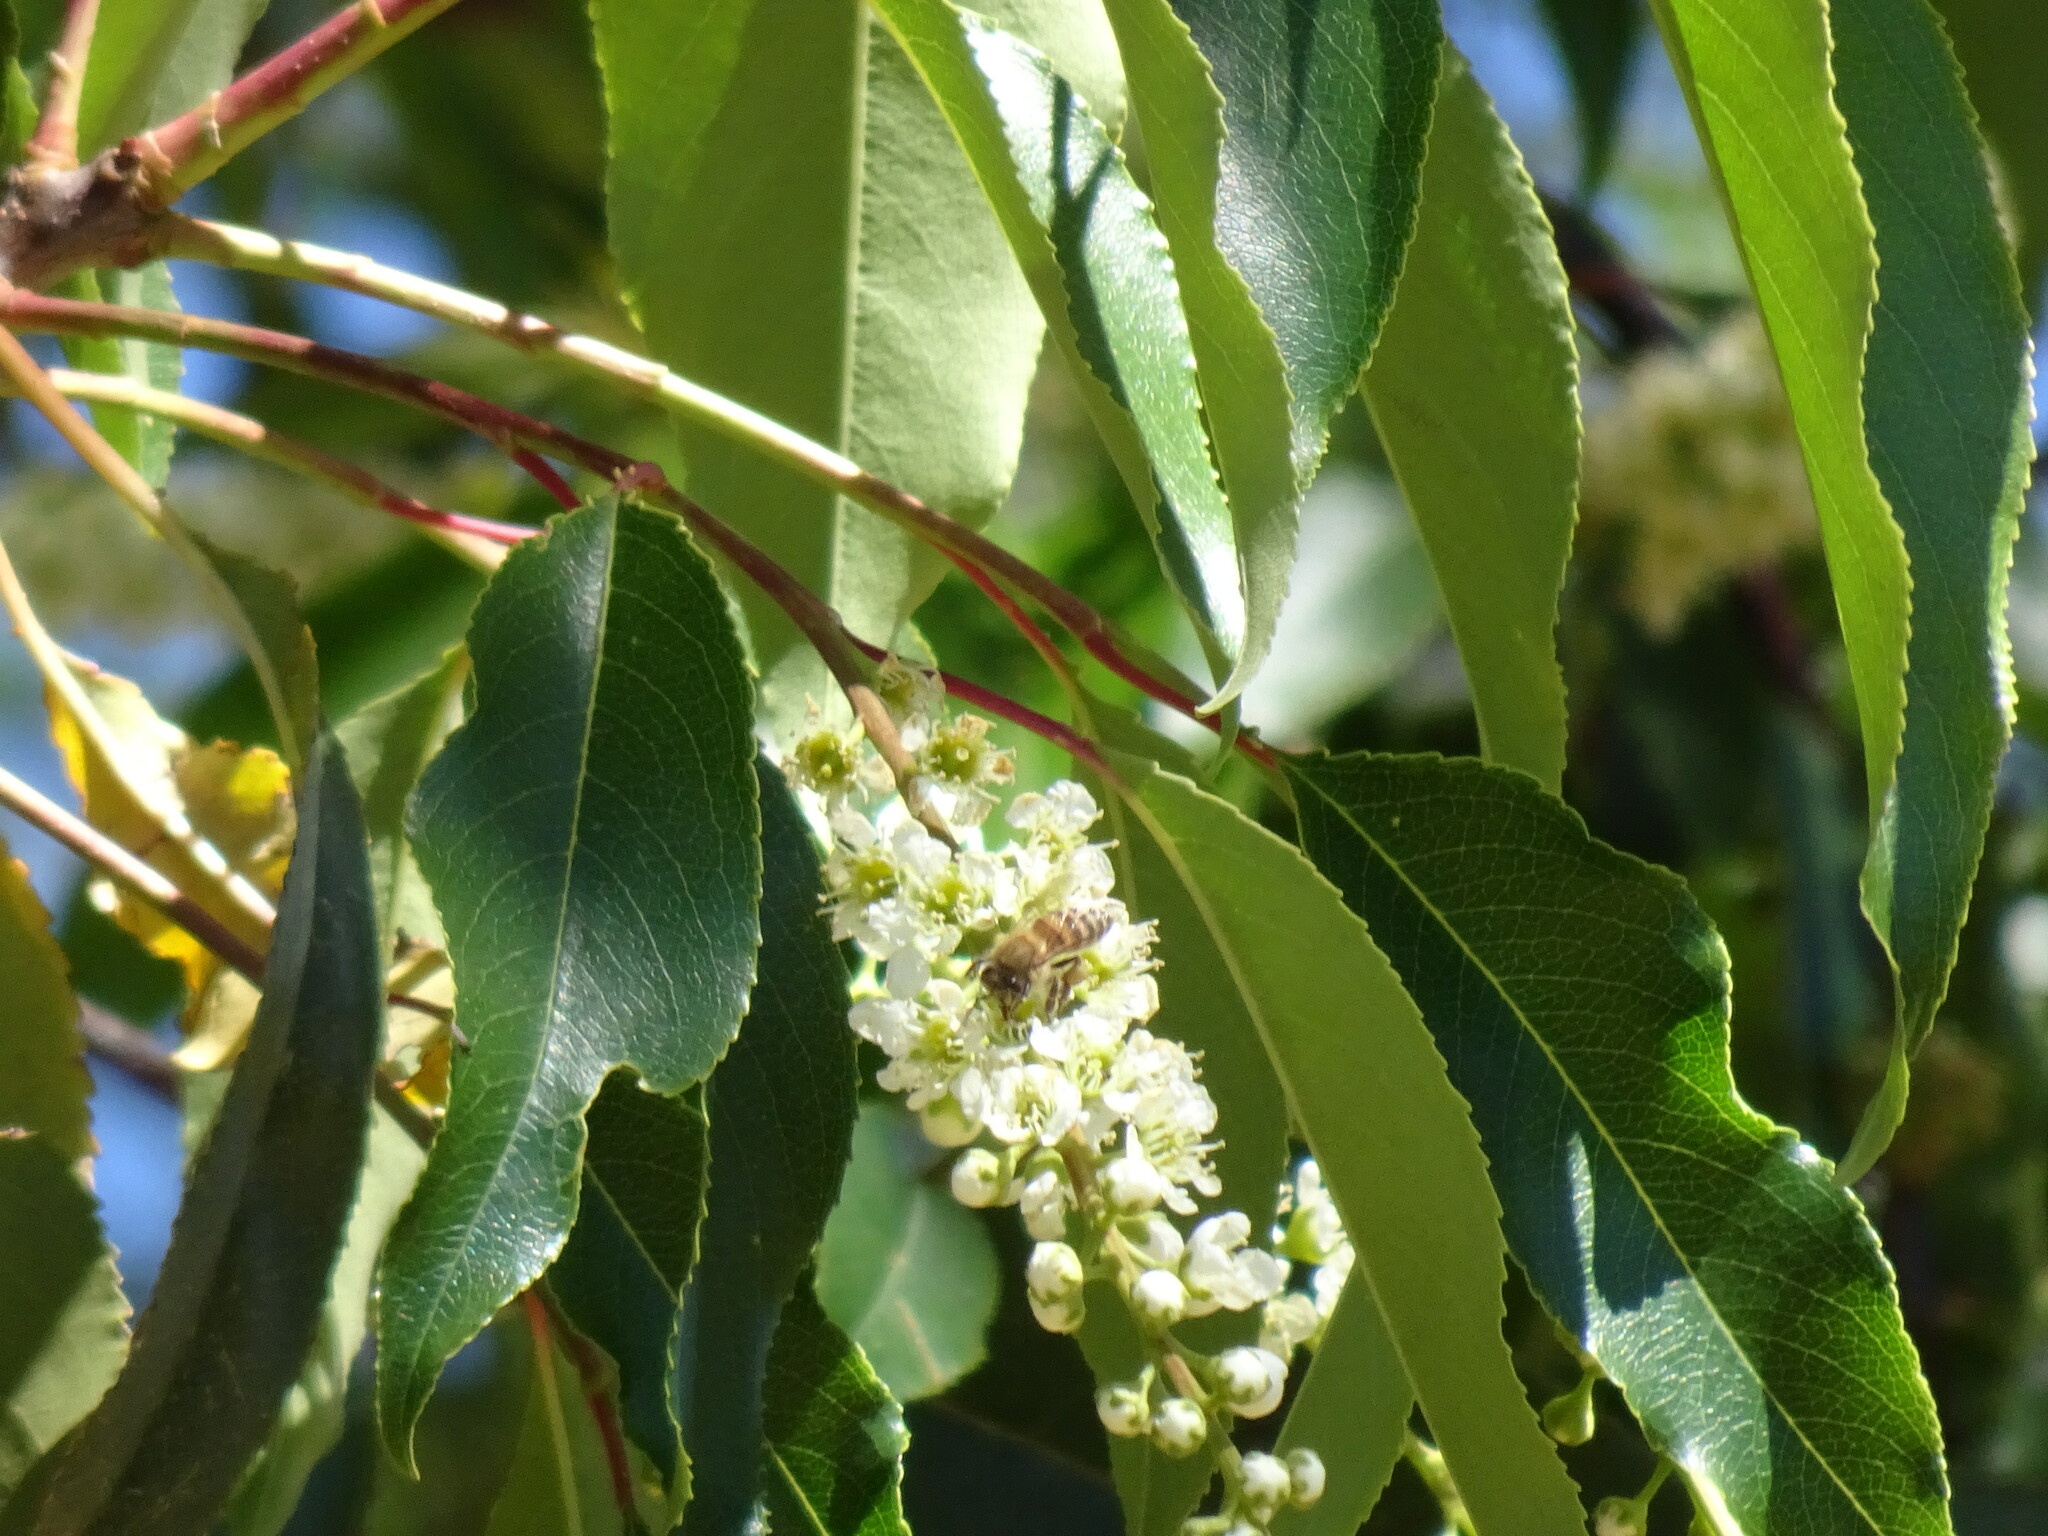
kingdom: Animalia
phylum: Arthropoda
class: Insecta
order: Hymenoptera
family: Apidae
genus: Apis
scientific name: Apis mellifera
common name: Honey bee
